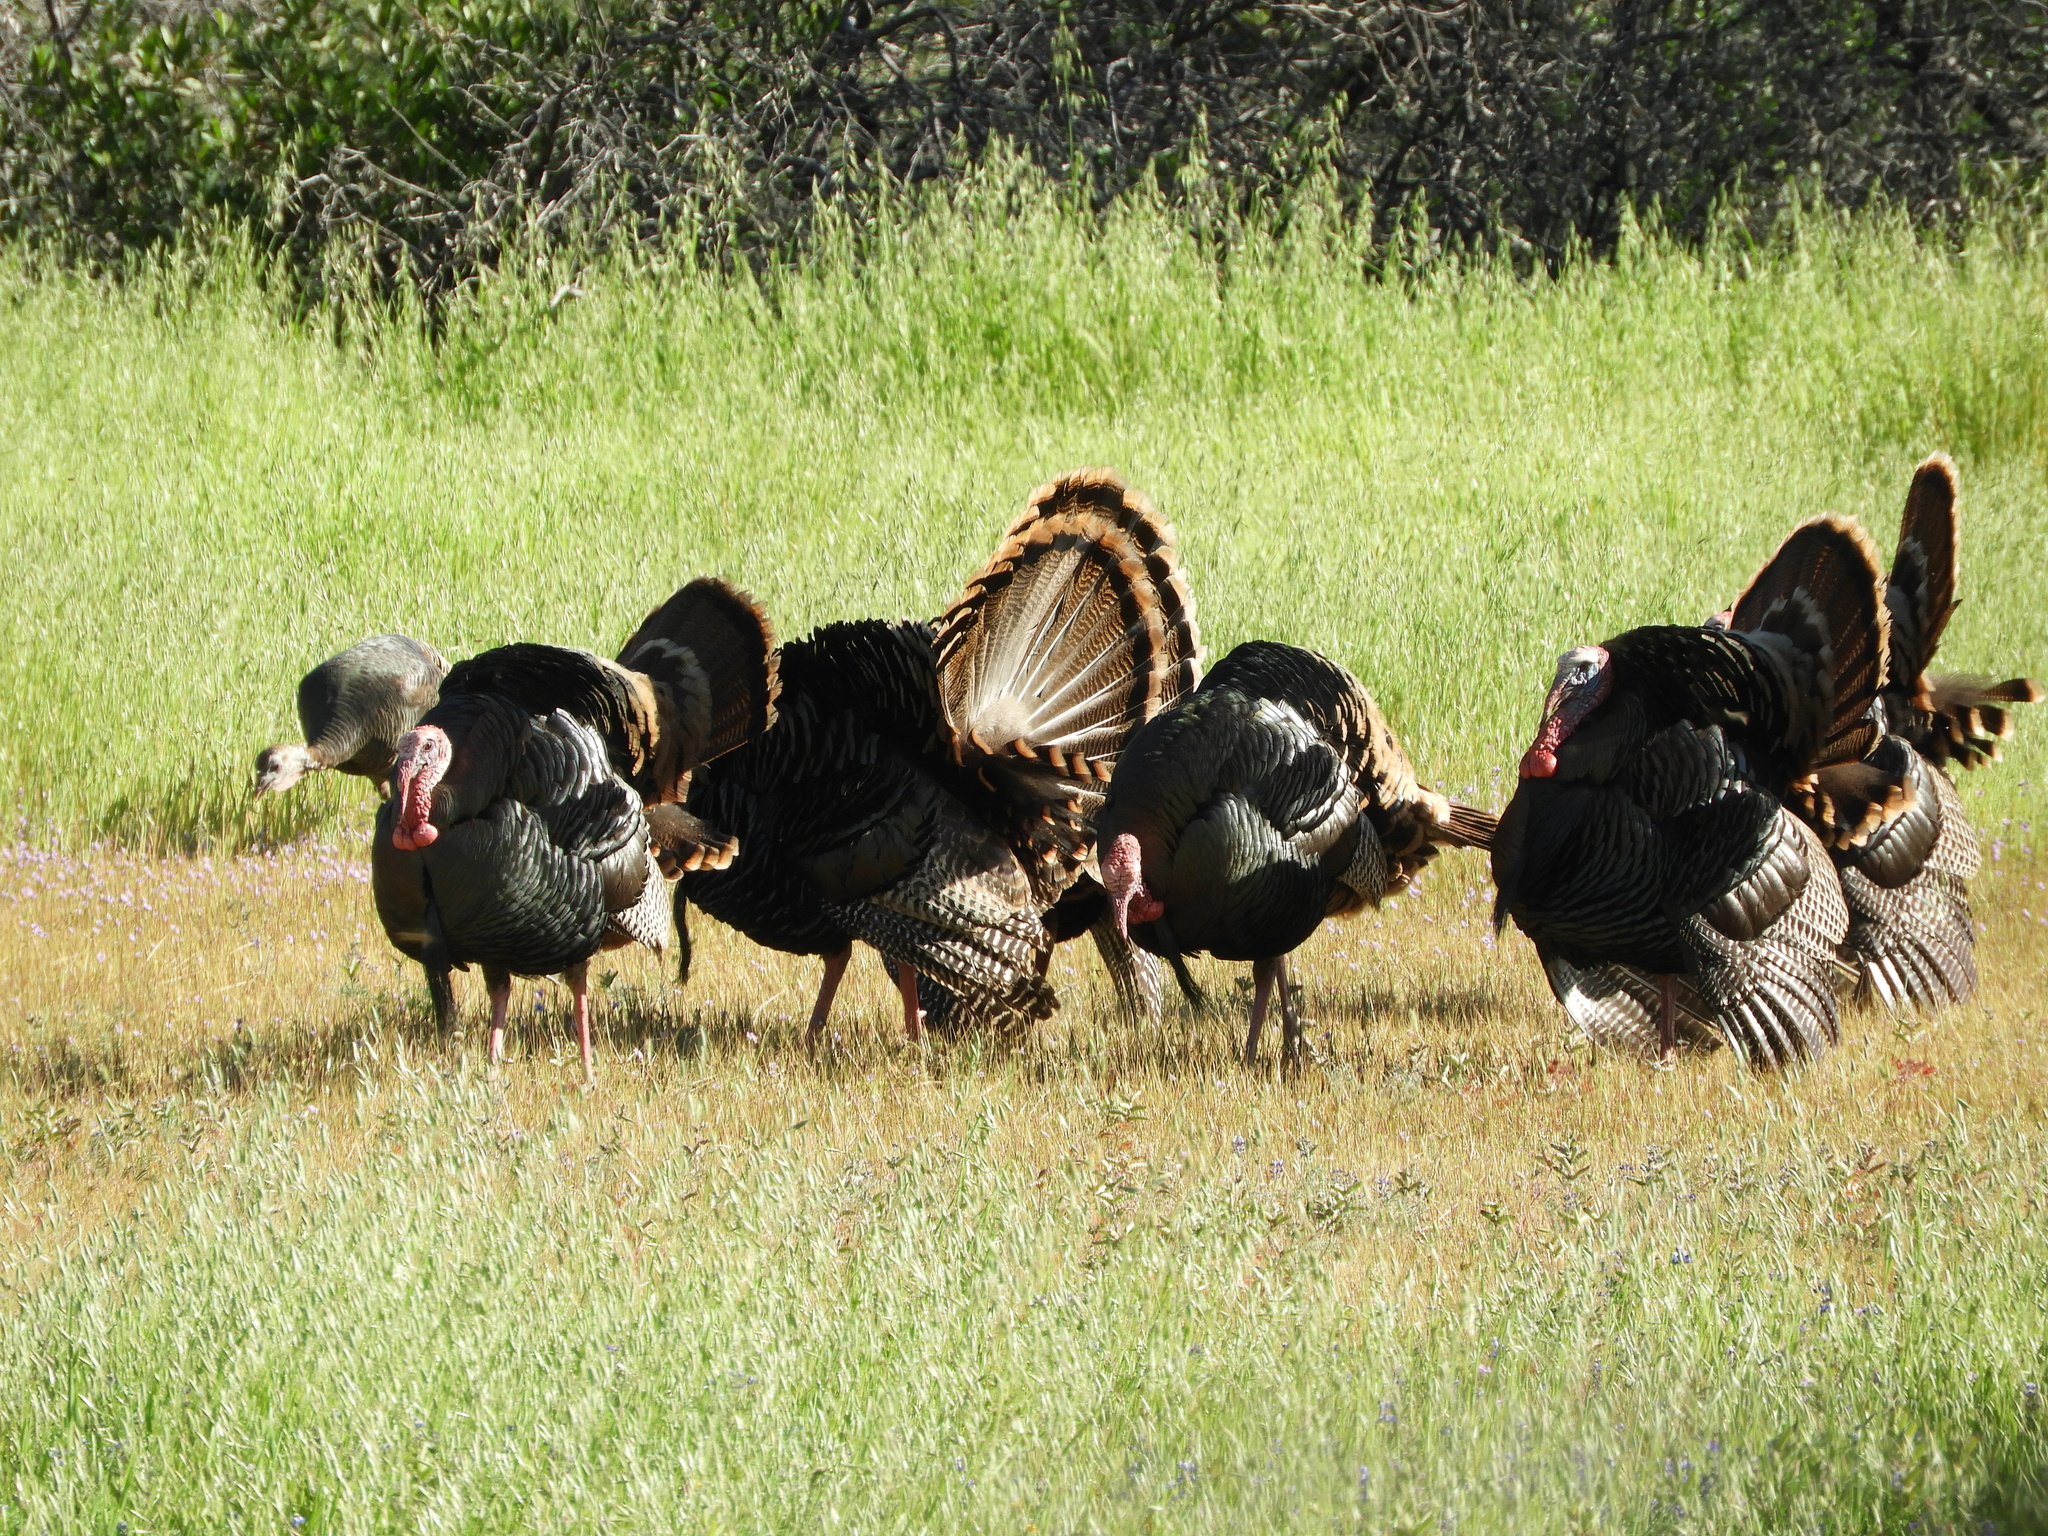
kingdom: Animalia
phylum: Chordata
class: Aves
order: Galliformes
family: Phasianidae
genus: Meleagris
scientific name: Meleagris gallopavo
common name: Wild turkey
